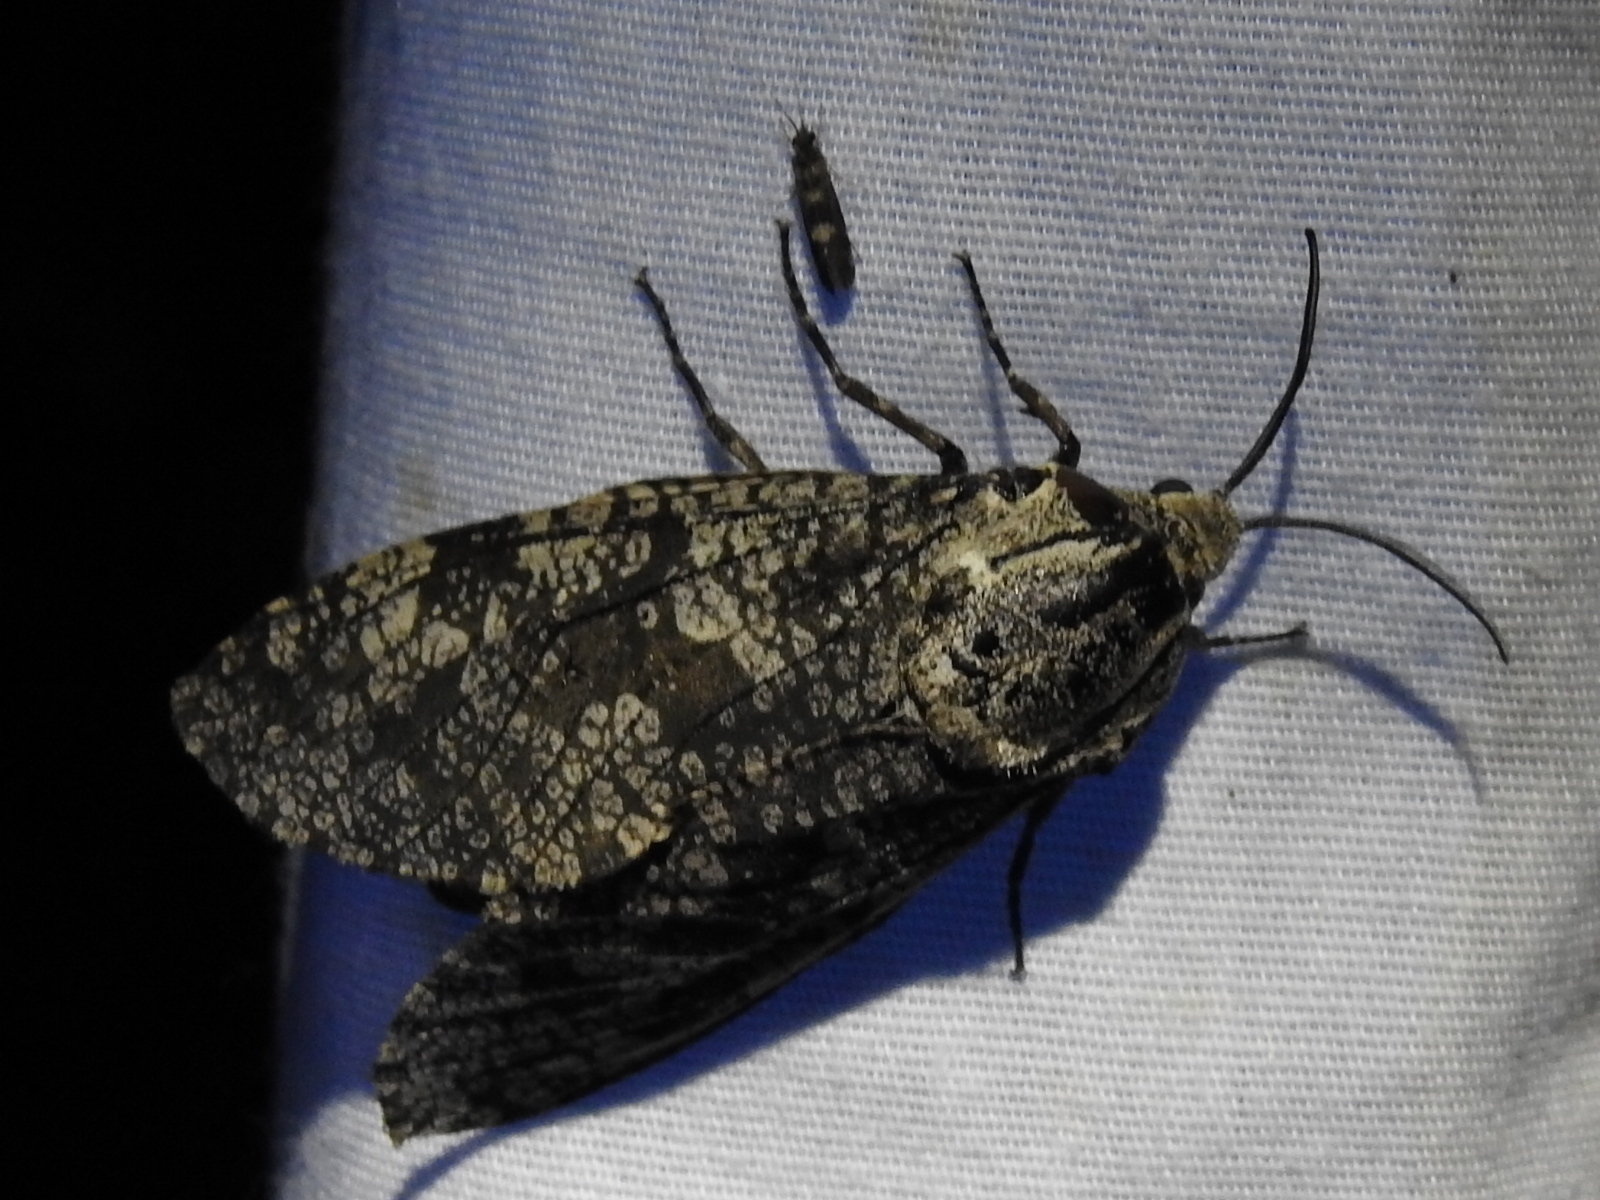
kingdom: Animalia
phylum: Arthropoda
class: Insecta
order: Lepidoptera
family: Cossidae
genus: Prionoxystus
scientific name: Prionoxystus robiniae
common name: Carpenterworm
